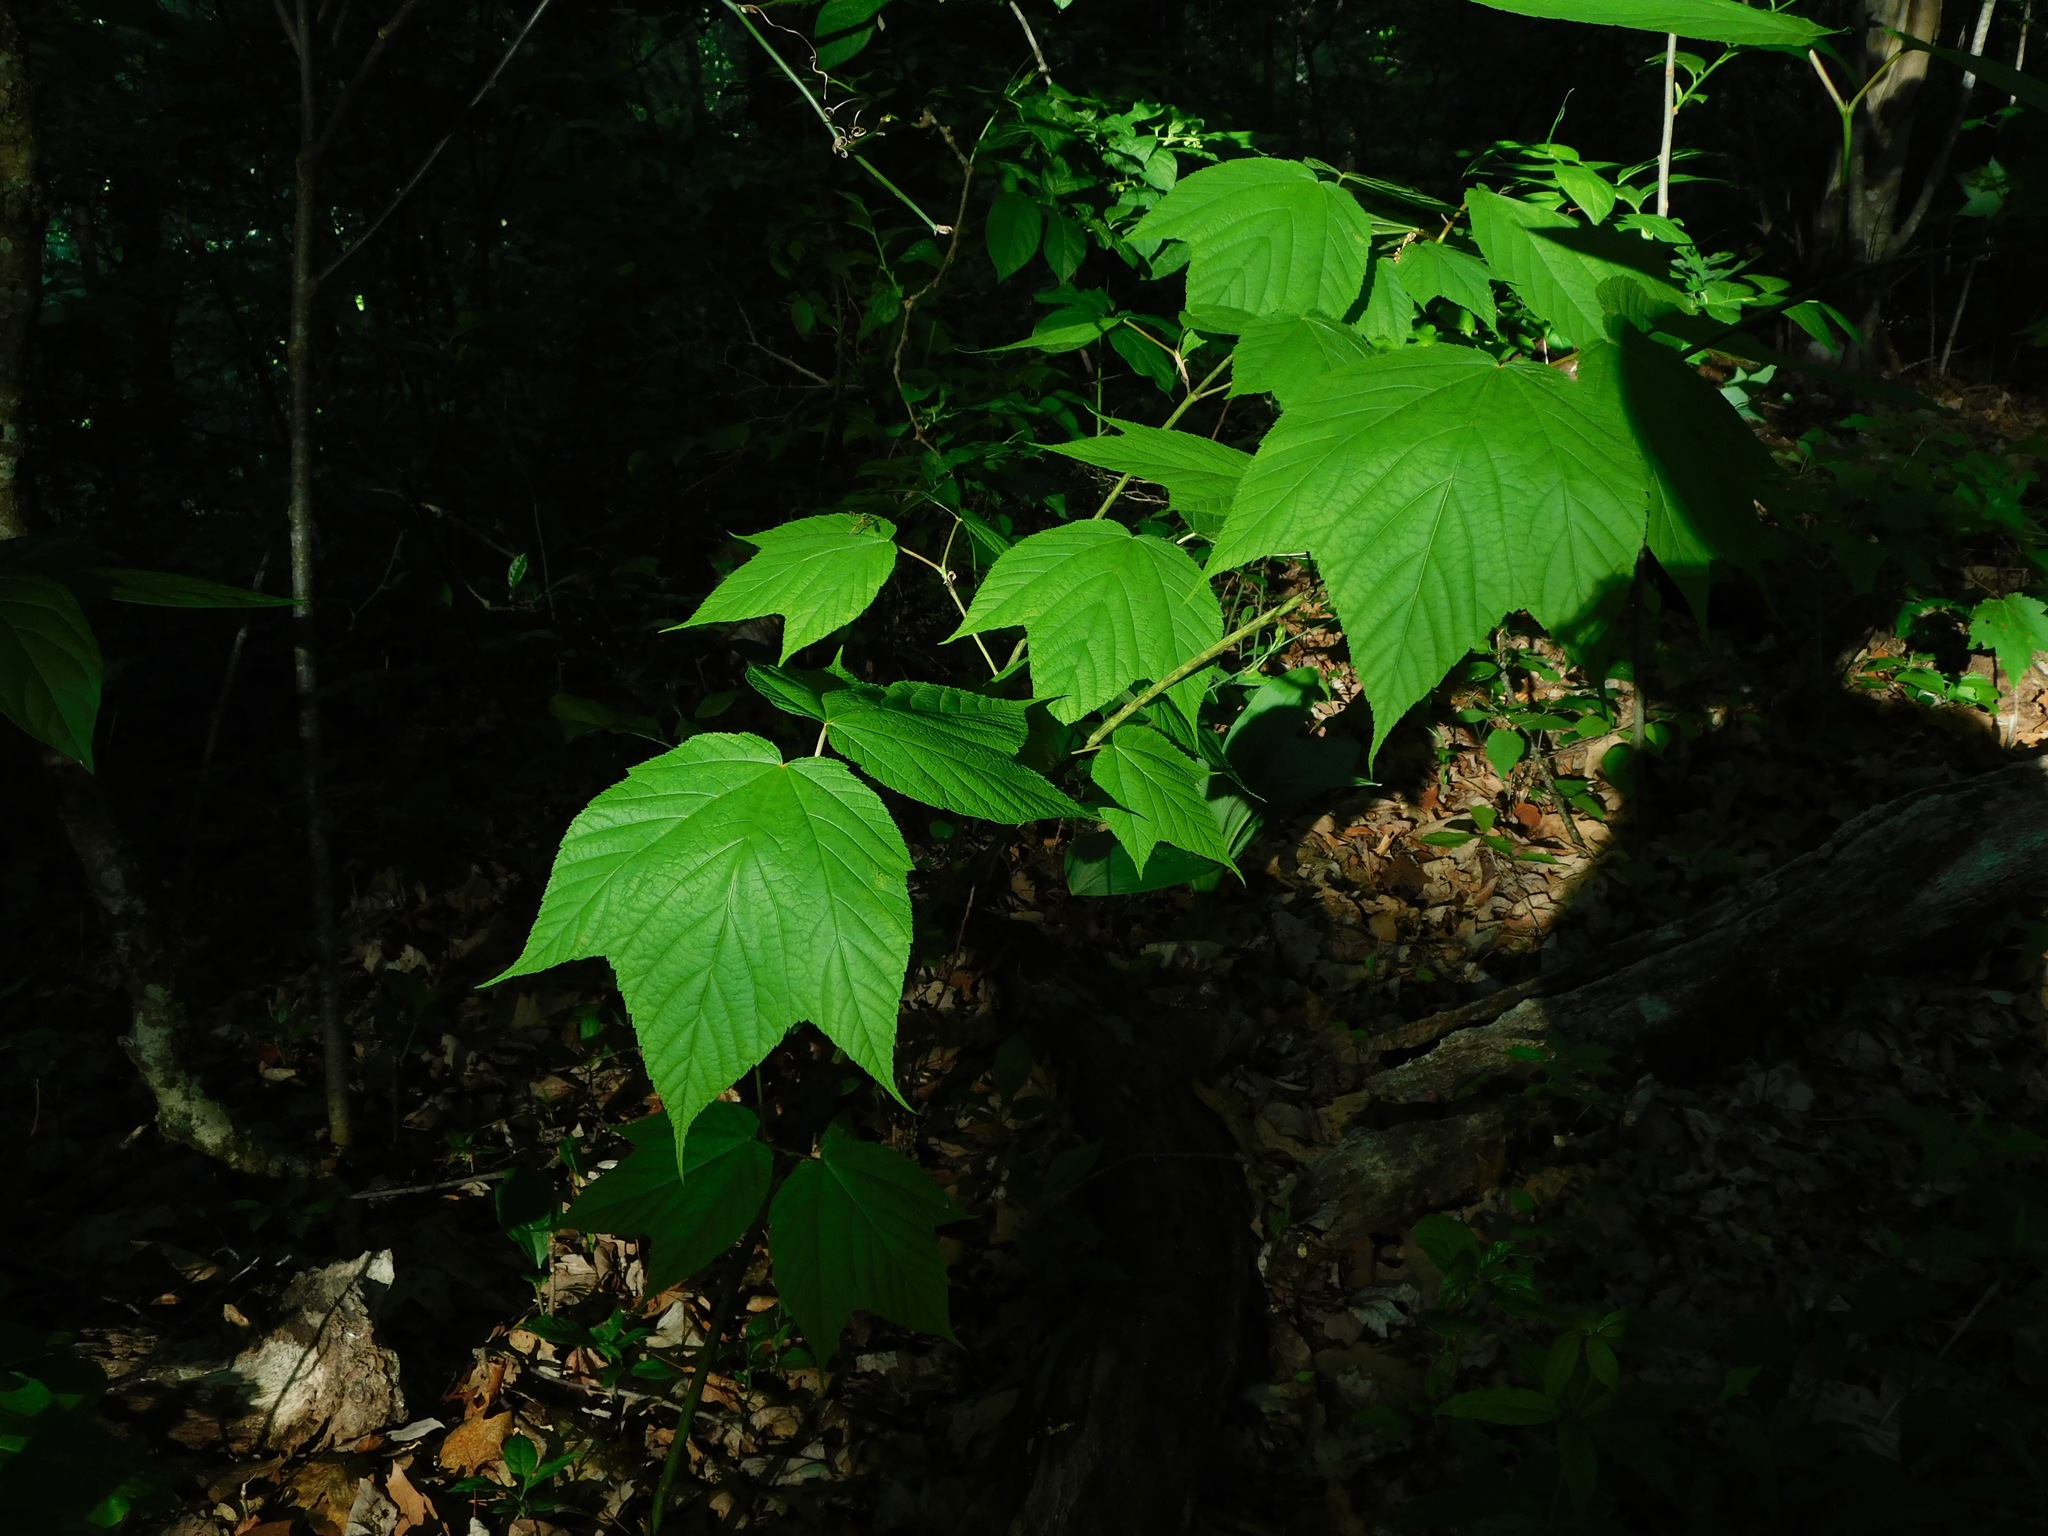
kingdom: Plantae
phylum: Tracheophyta
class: Magnoliopsida
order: Sapindales
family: Sapindaceae
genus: Acer
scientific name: Acer pensylvanicum
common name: Moosewood
